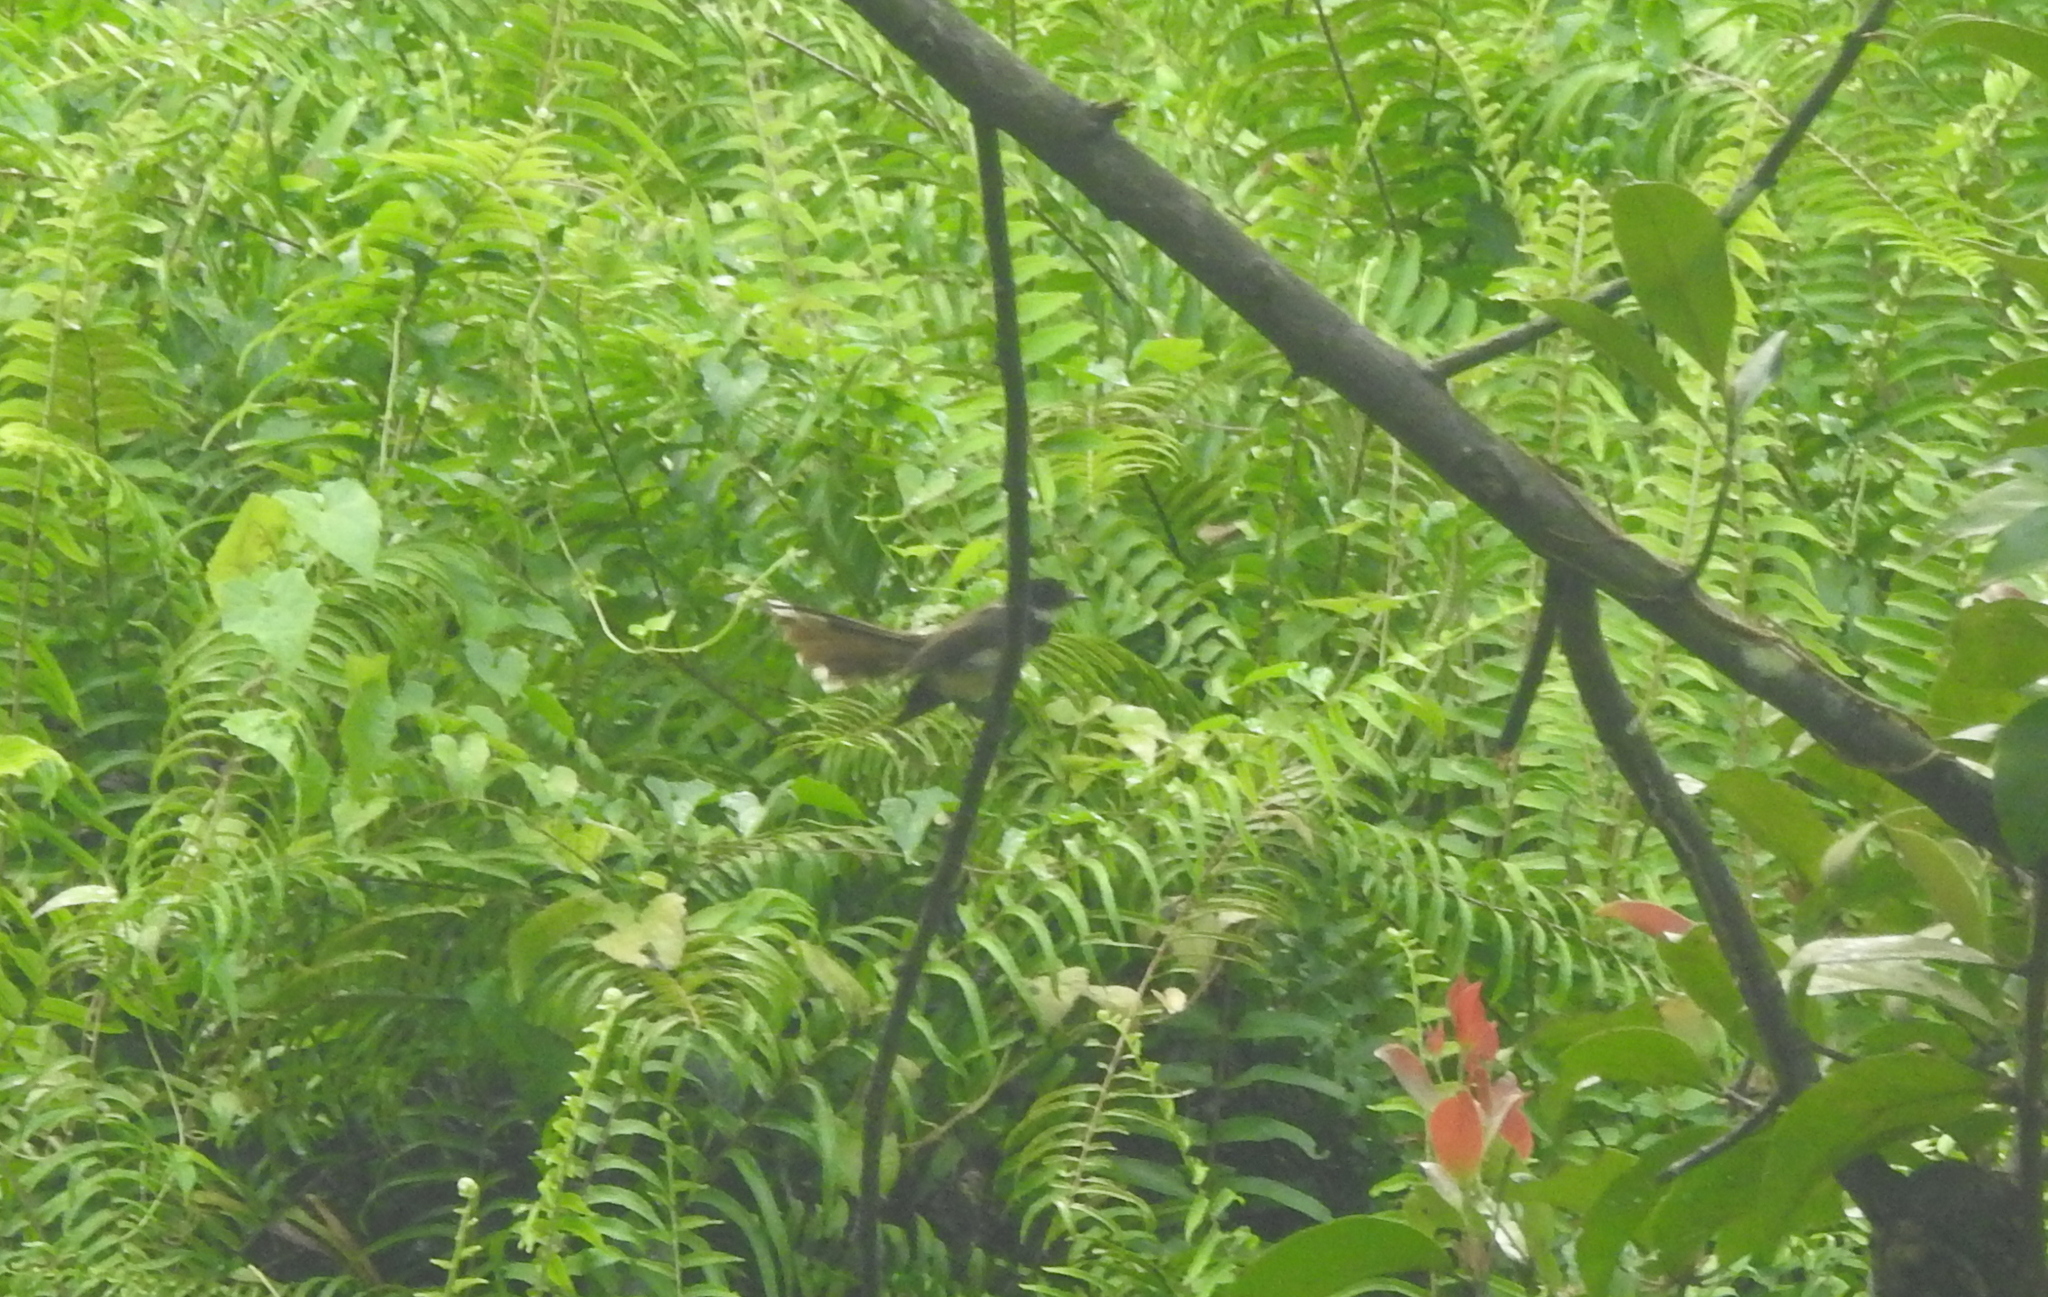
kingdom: Animalia
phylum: Chordata
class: Aves
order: Passeriformes
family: Rhipiduridae
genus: Rhipidura
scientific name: Rhipidura javanica
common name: Pied fantail
